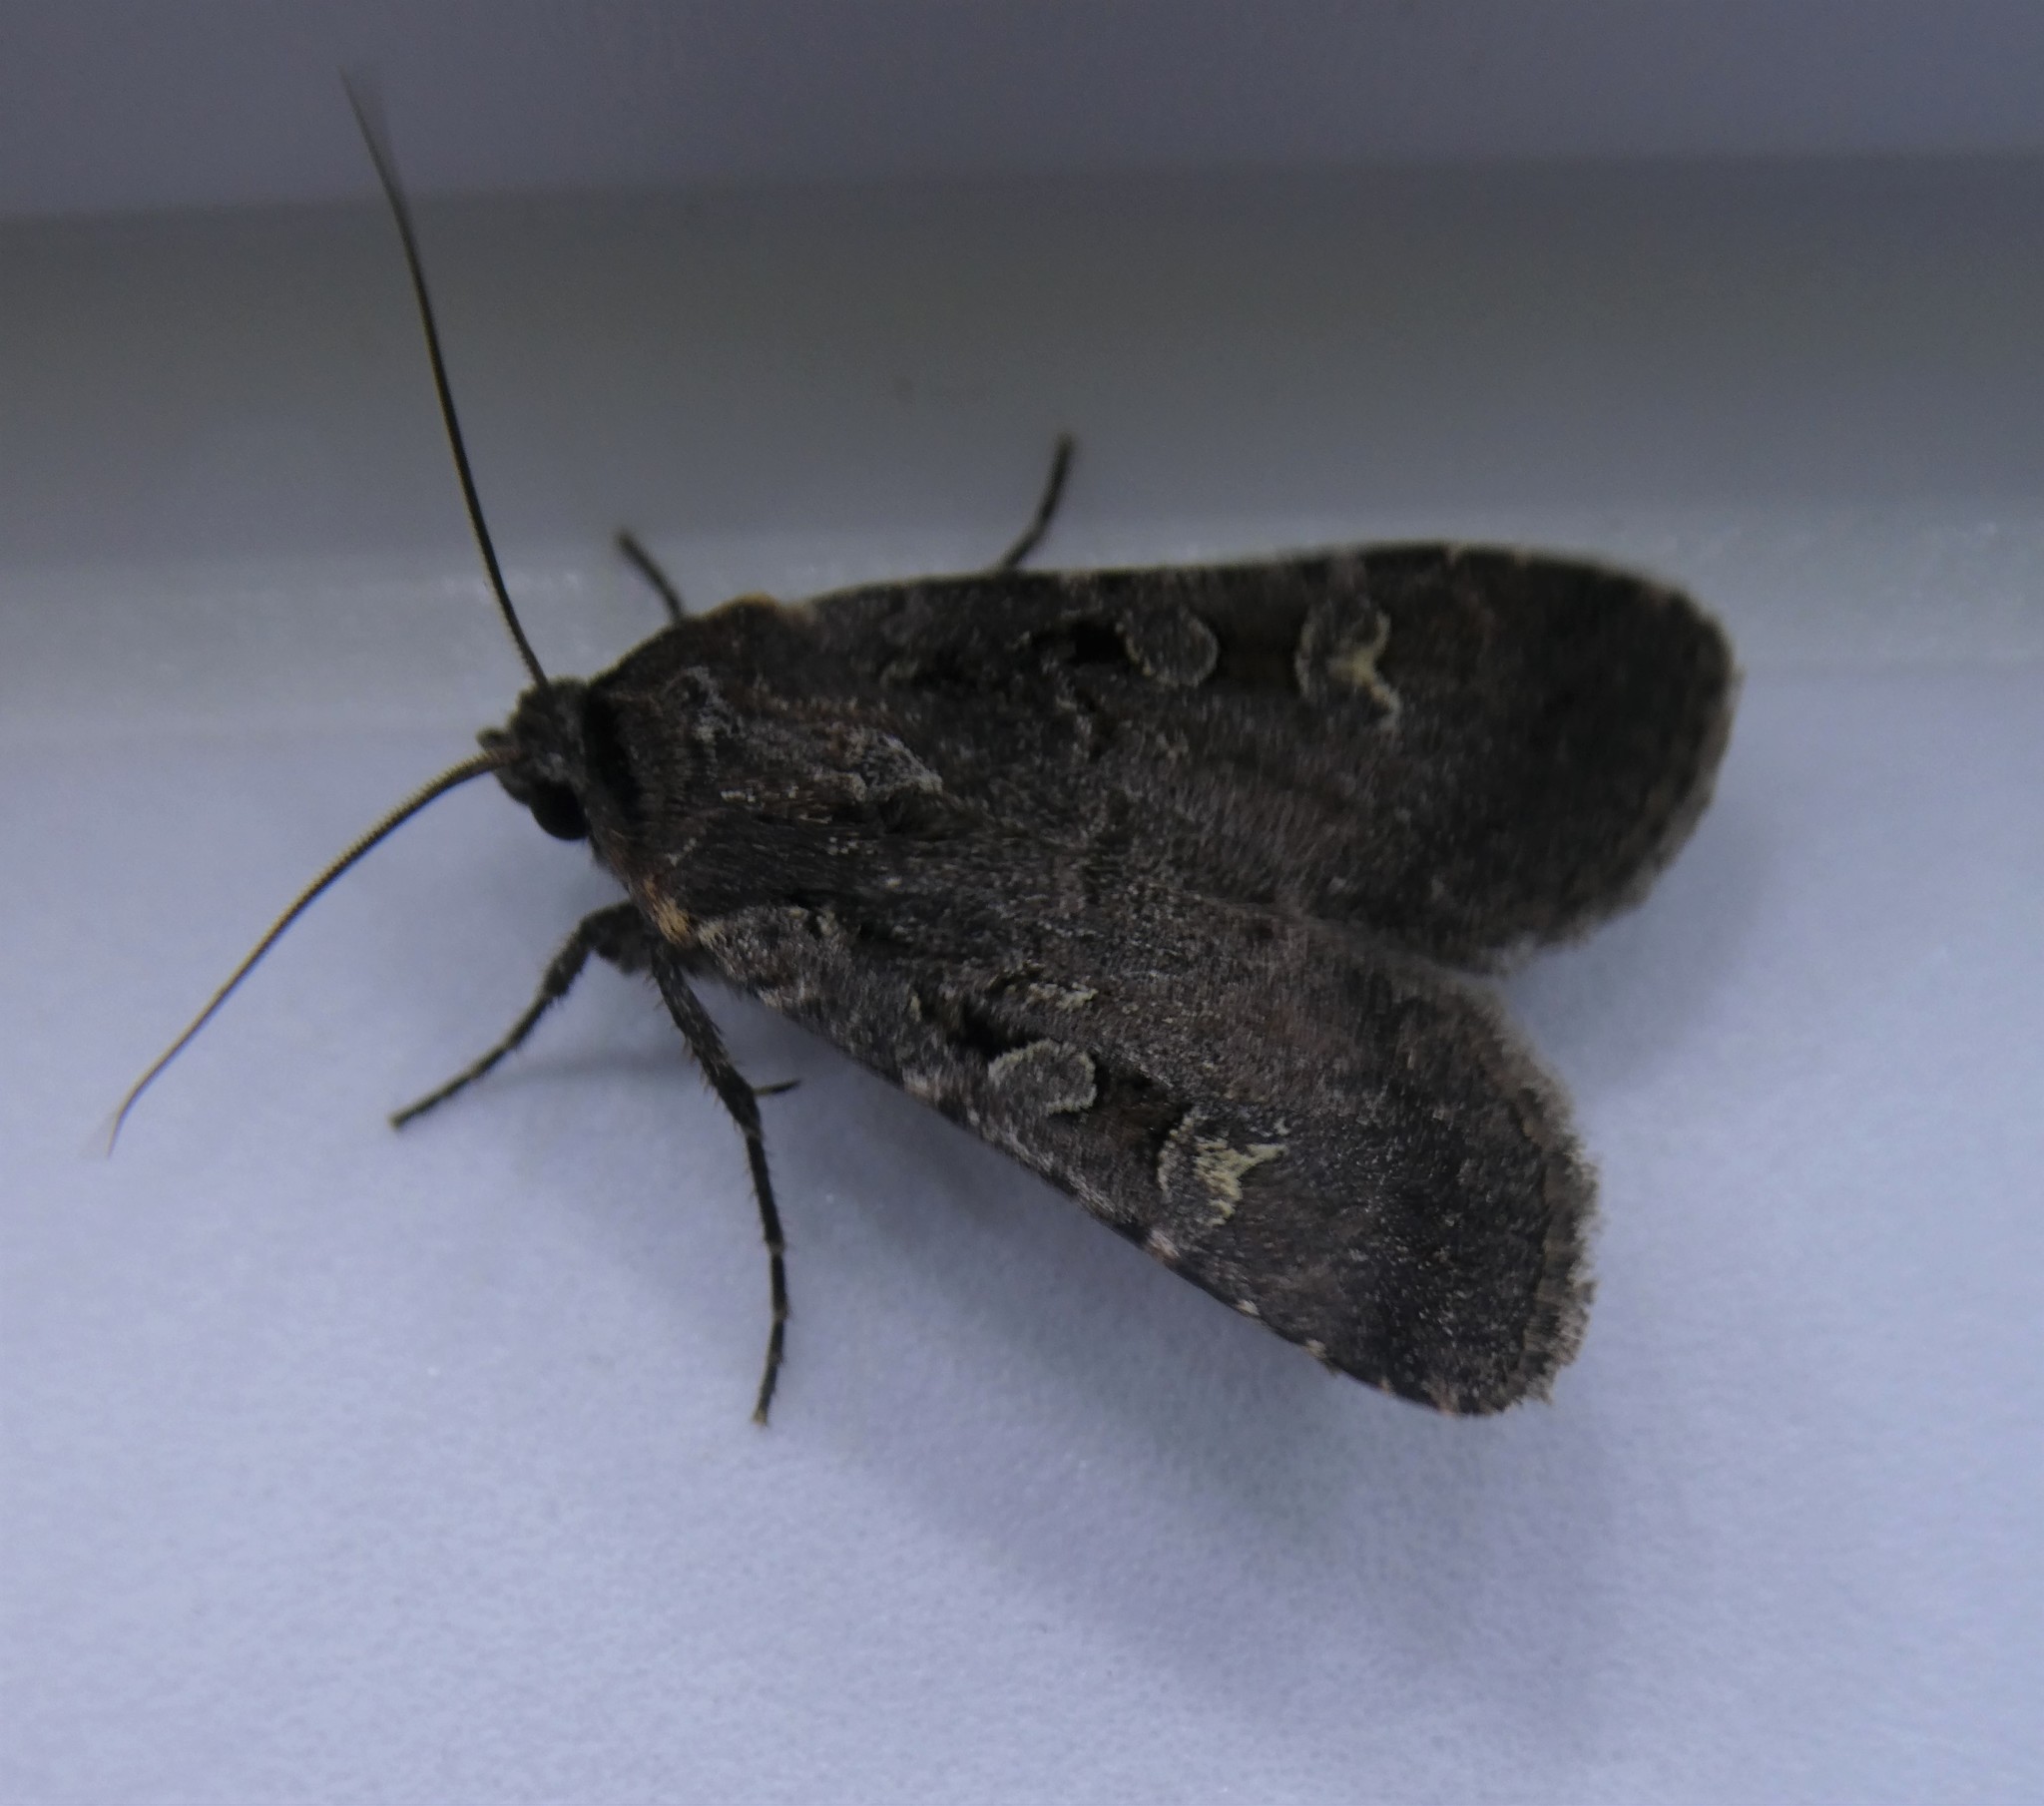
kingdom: Animalia
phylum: Arthropoda
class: Insecta
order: Lepidoptera
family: Noctuidae
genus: Euxoa
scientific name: Euxoa tessellata
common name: Striped cutworm
